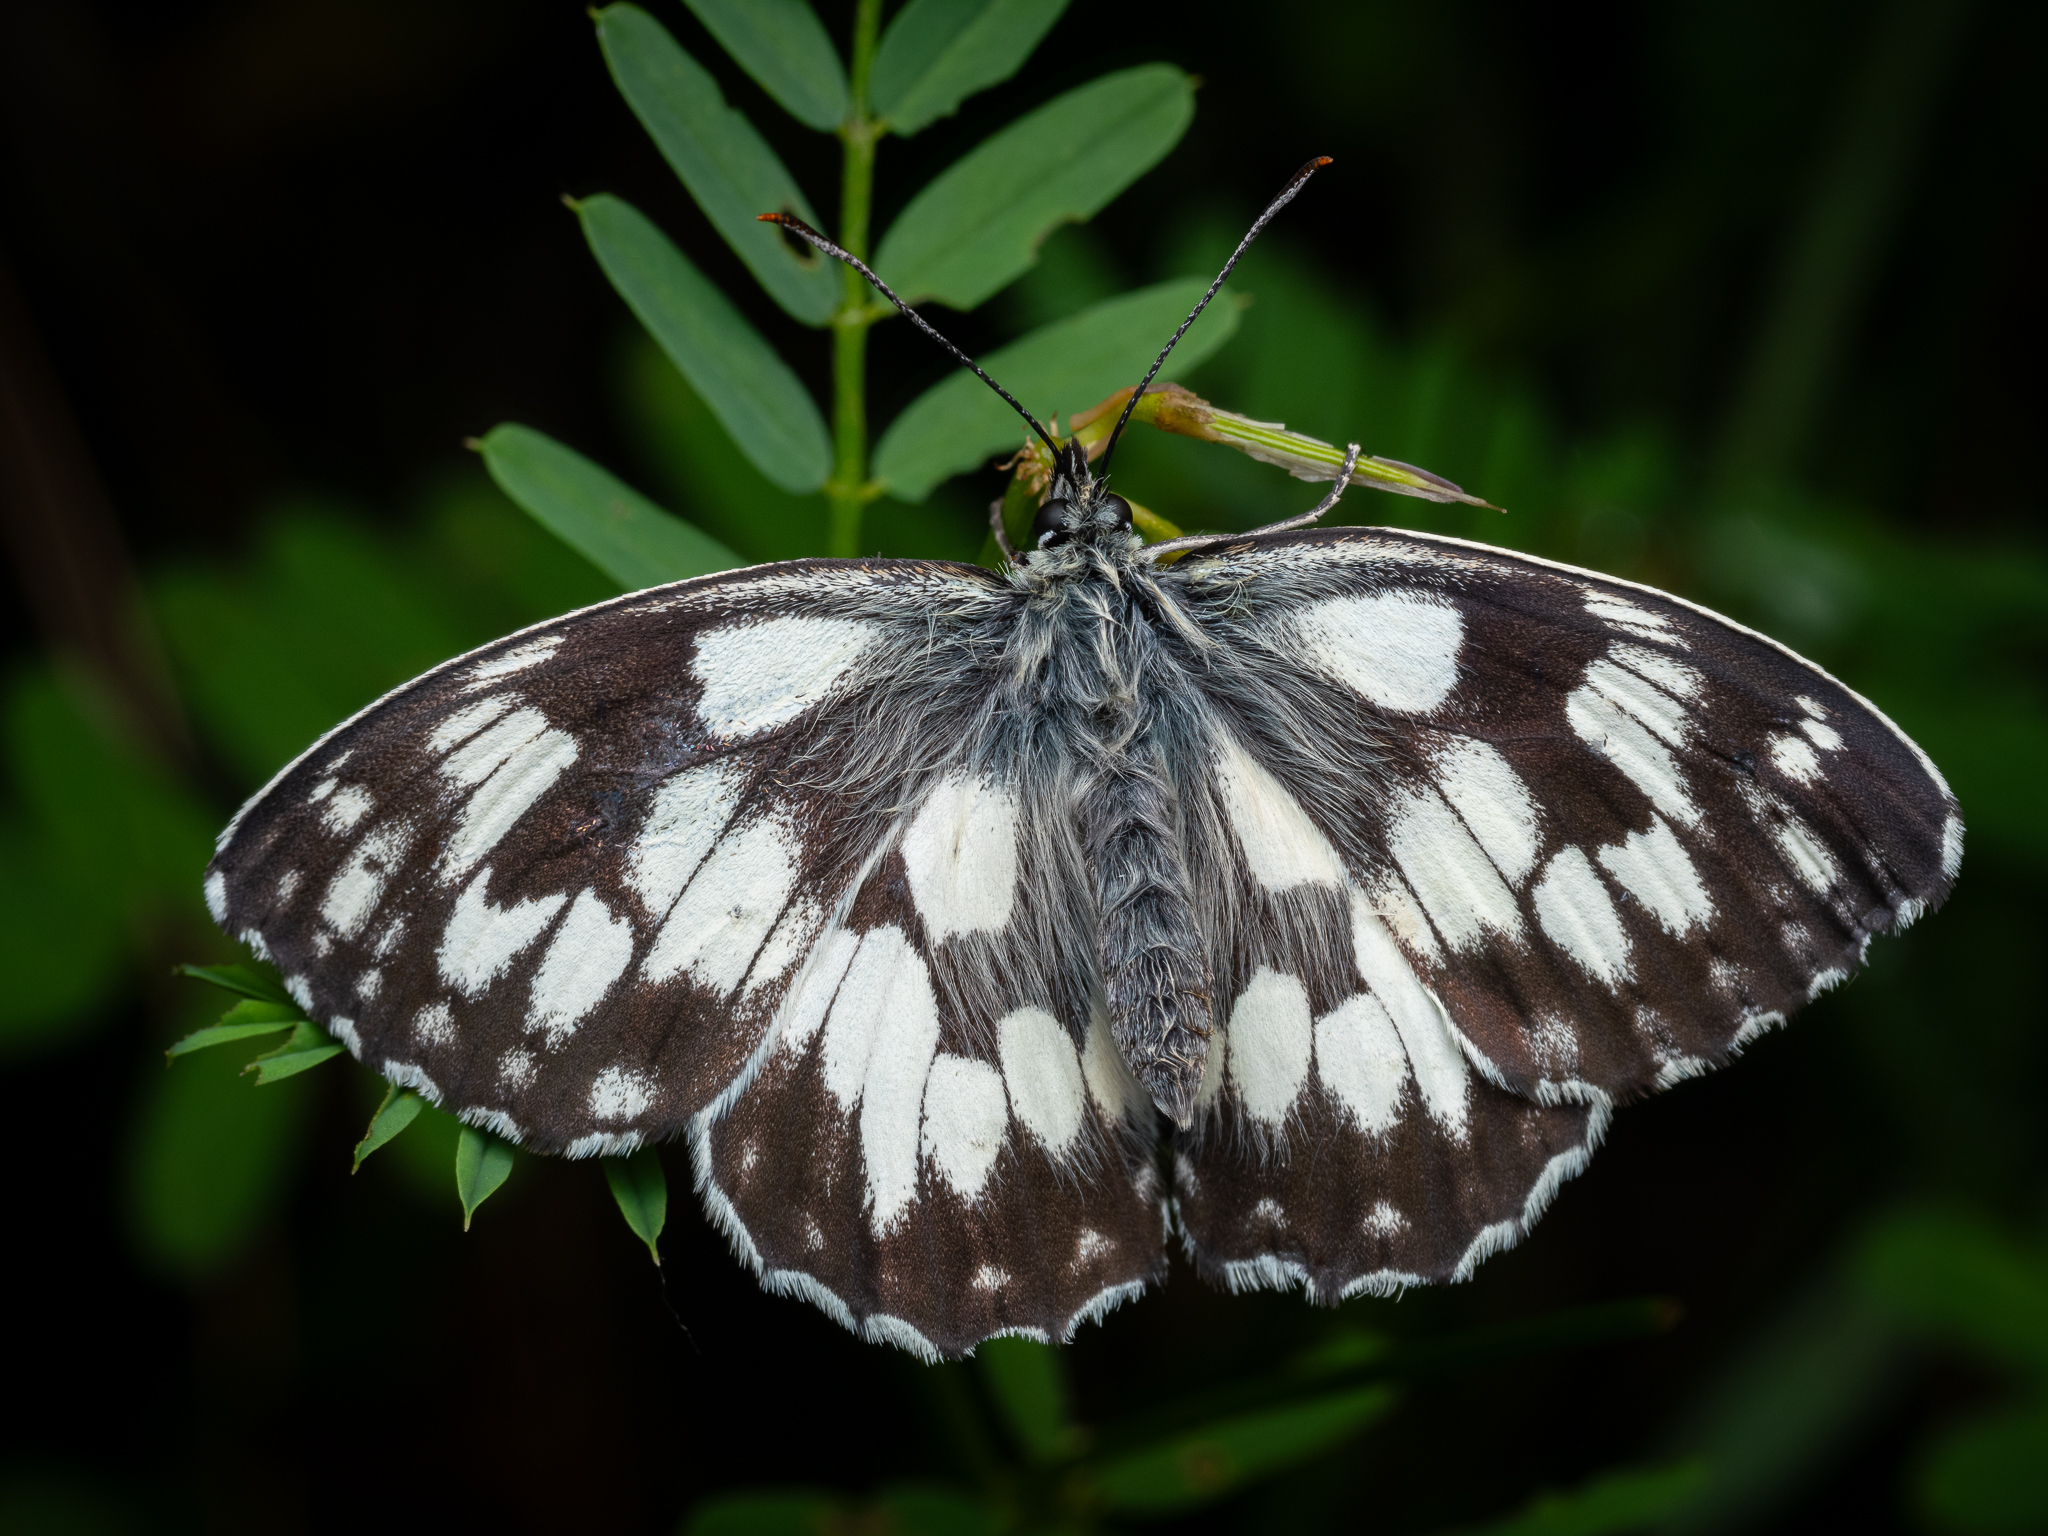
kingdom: Animalia
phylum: Arthropoda
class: Insecta
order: Lepidoptera
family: Nymphalidae
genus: Melanargia
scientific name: Melanargia galathea
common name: Marbled white
